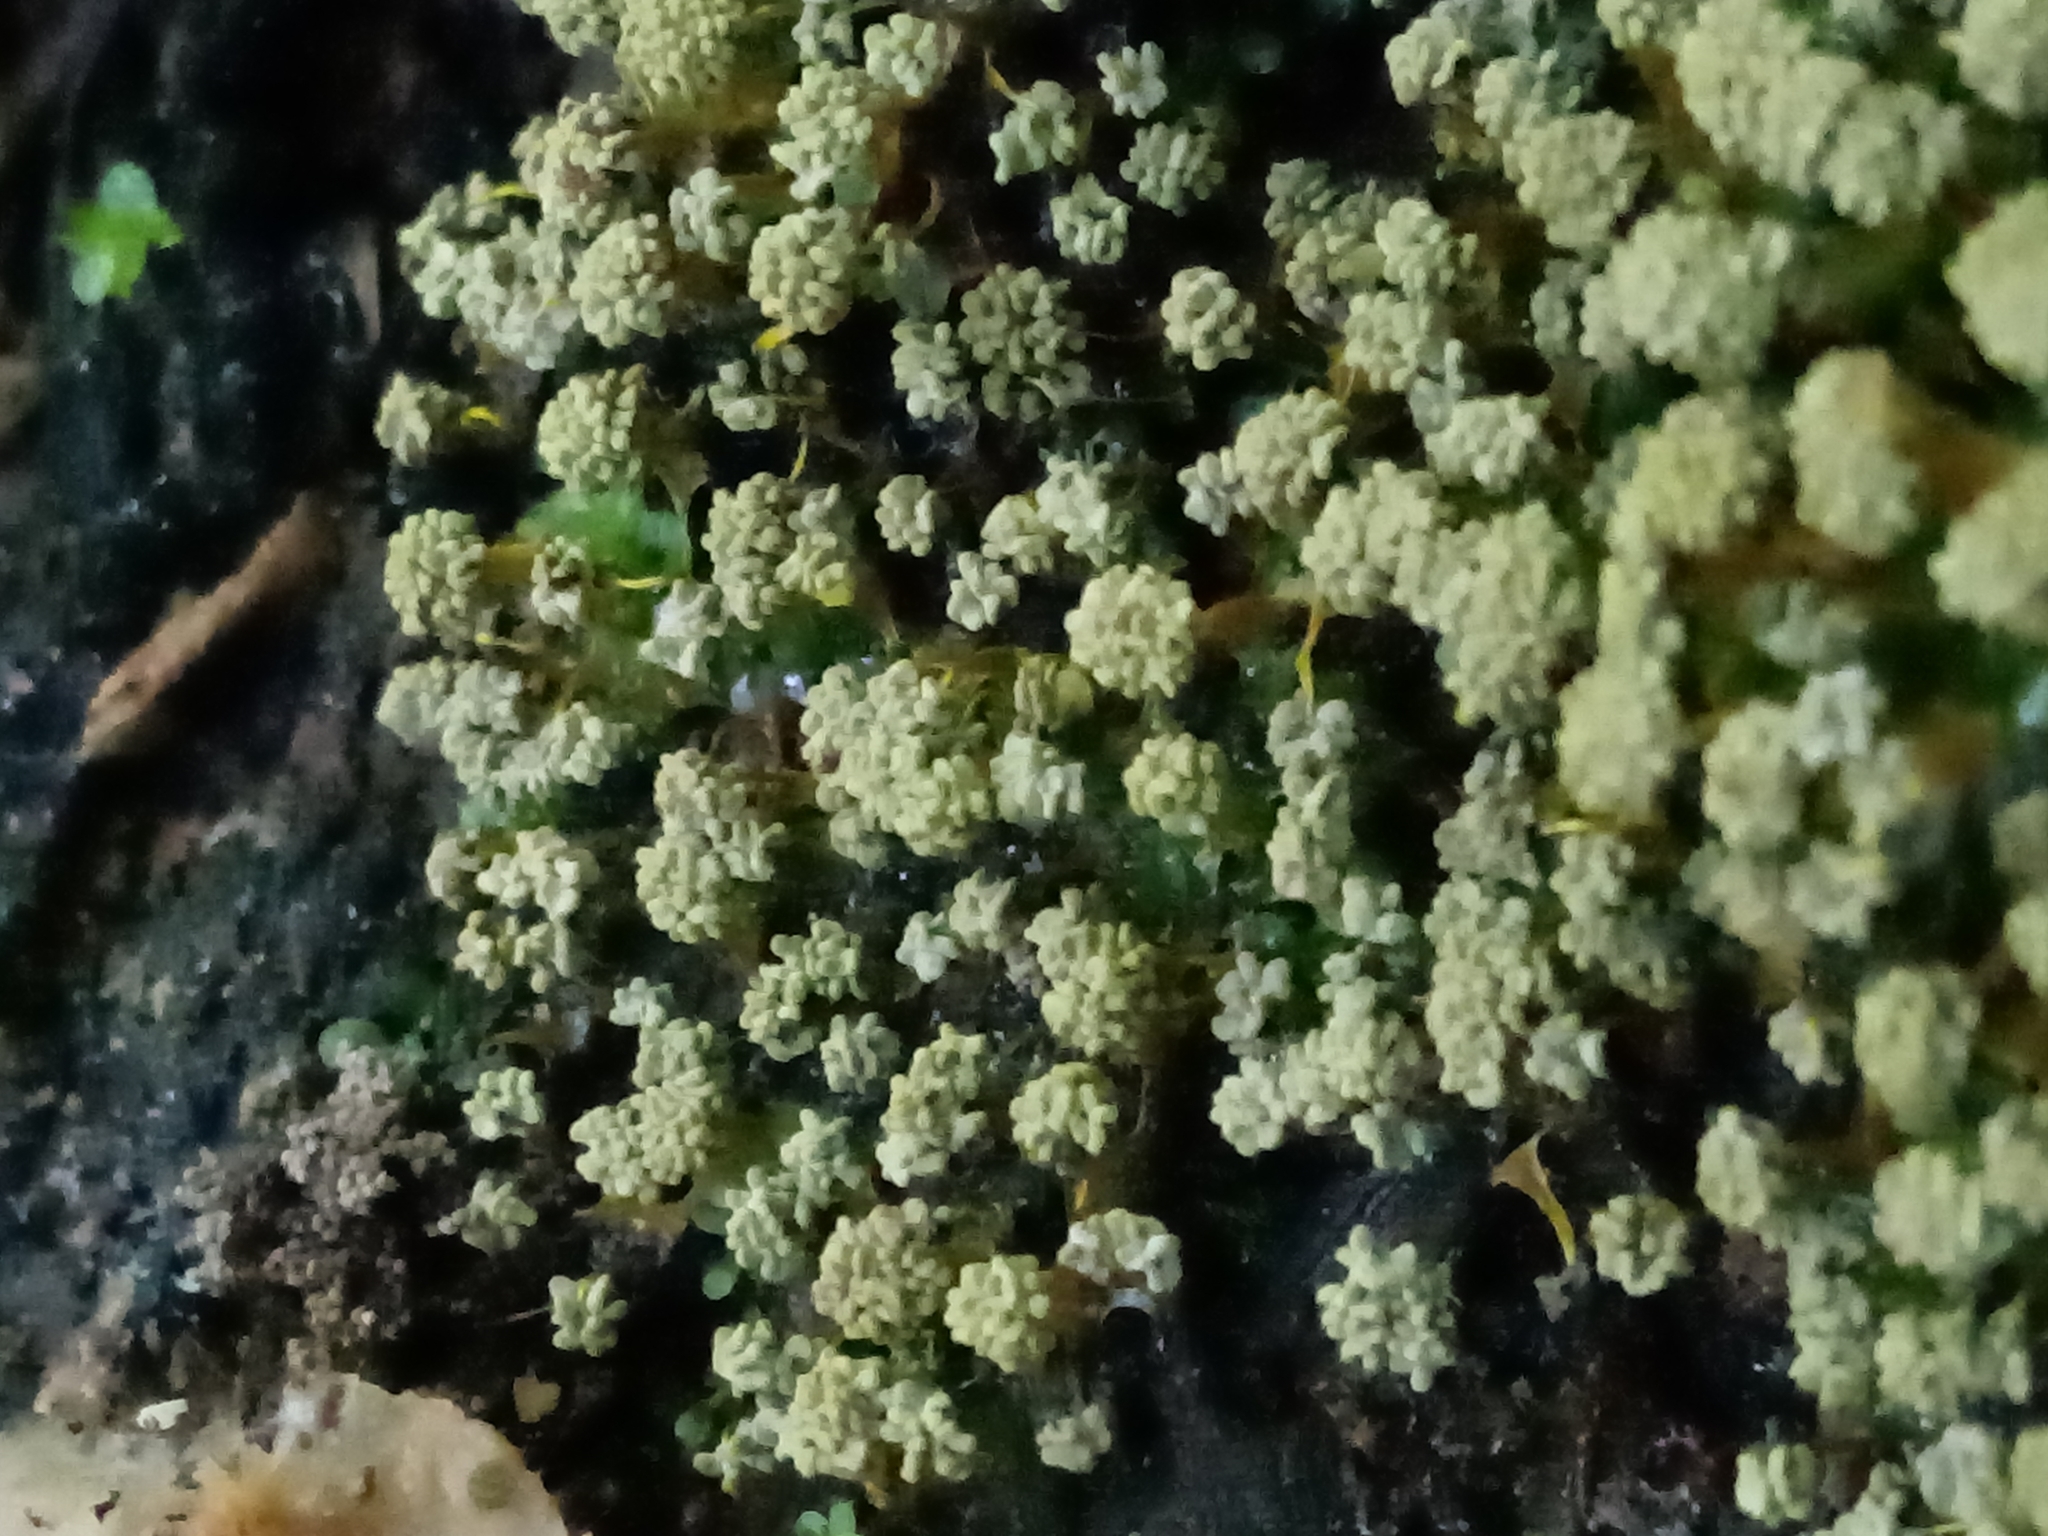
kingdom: Protozoa
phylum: Mycetozoa
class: Myxomycetes
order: Physarales
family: Physaraceae
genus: Physarum
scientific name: Physarum polycephalum
